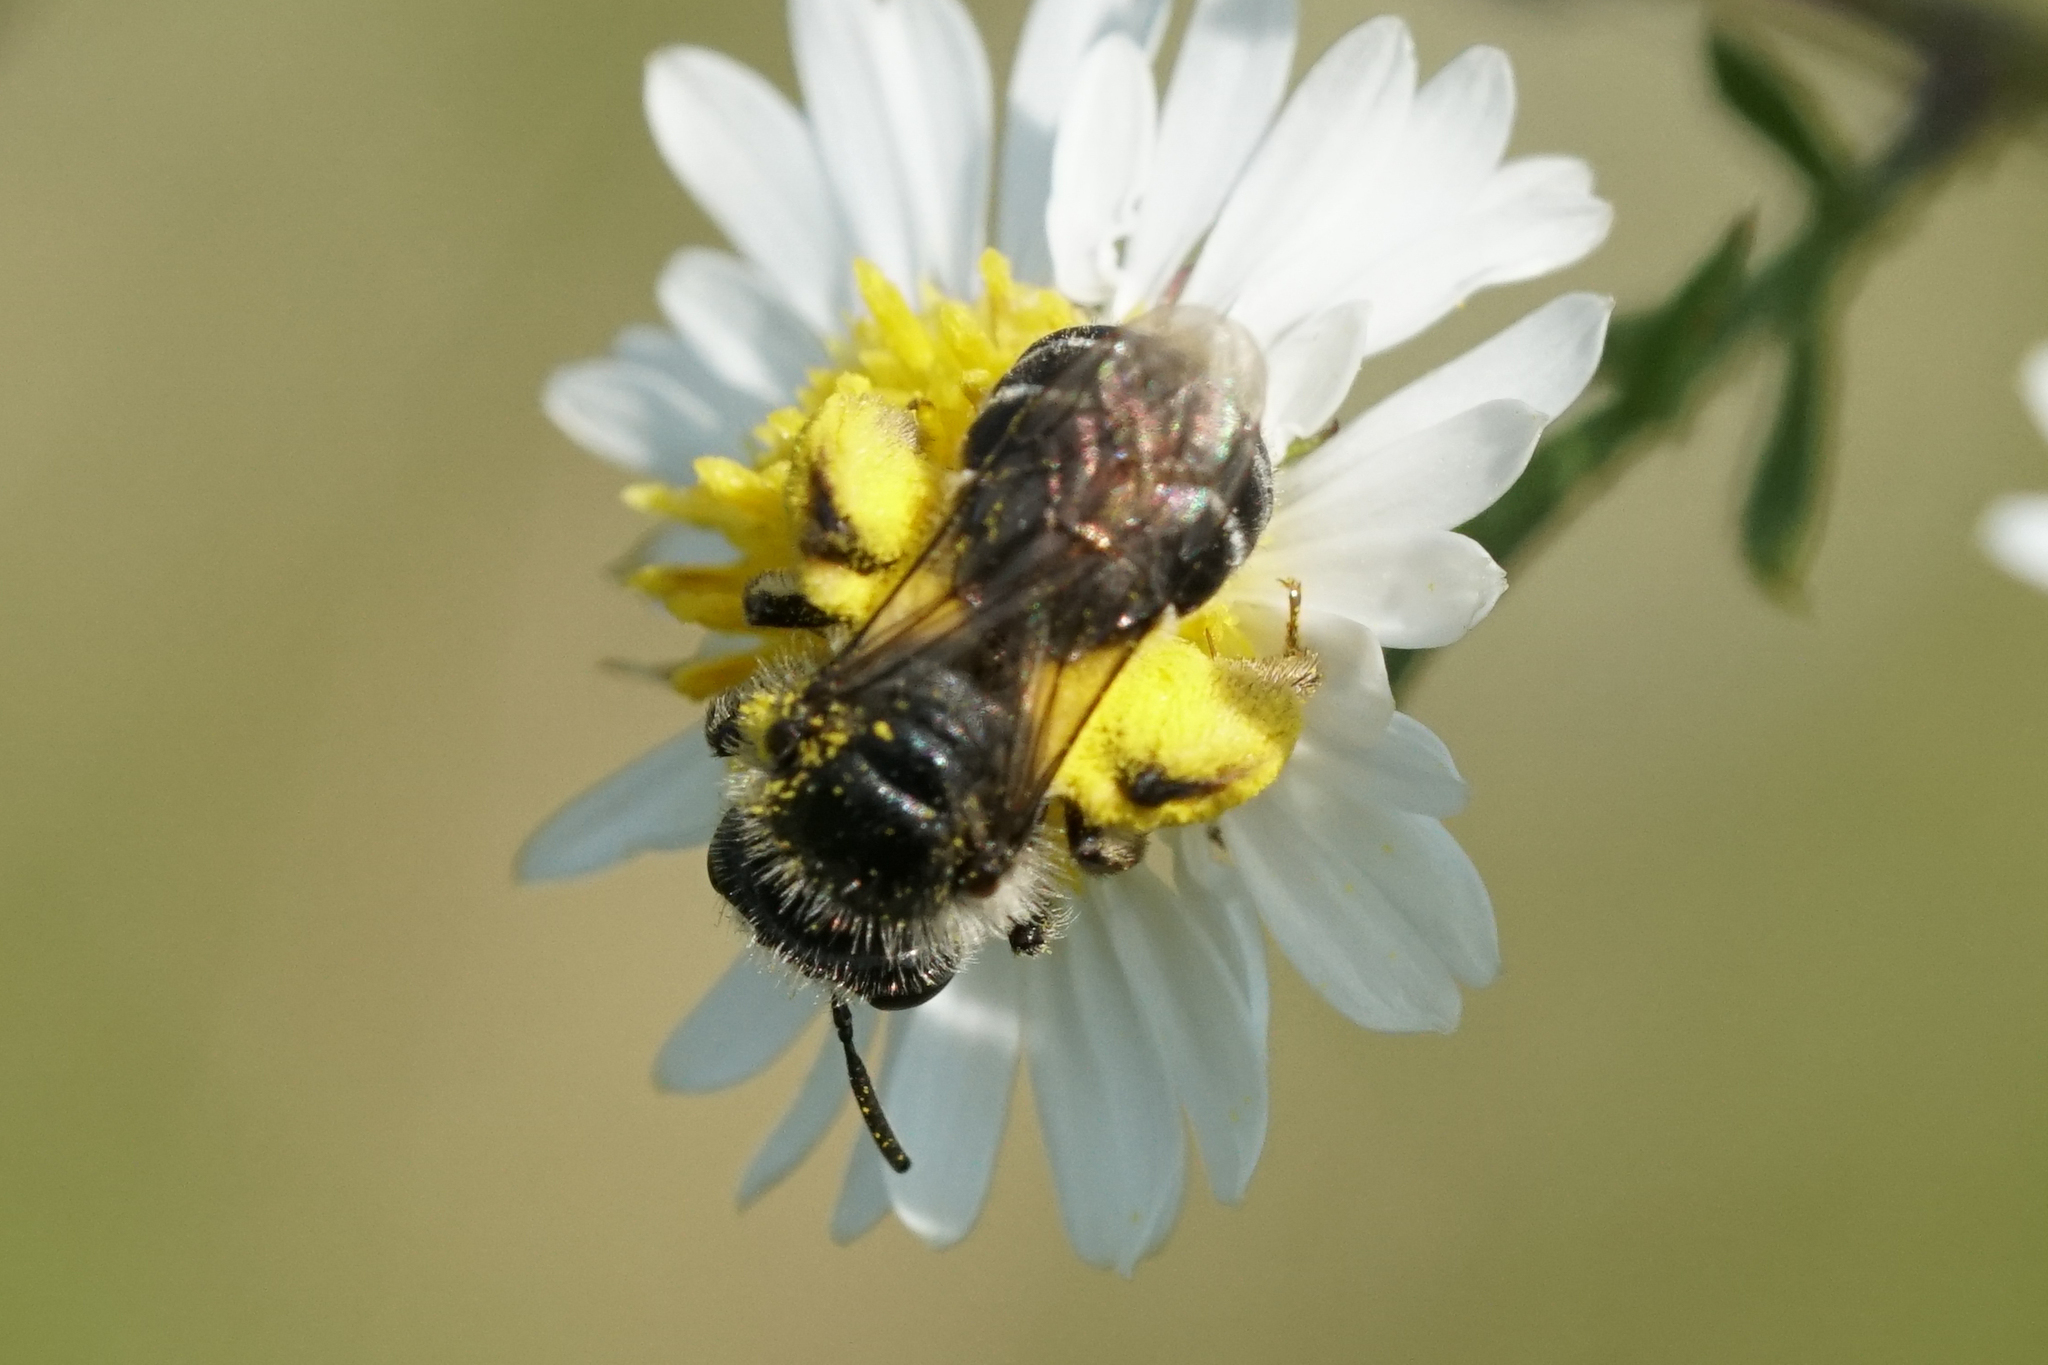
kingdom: Animalia
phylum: Arthropoda
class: Insecta
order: Hymenoptera
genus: Callandrena
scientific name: Callandrena
